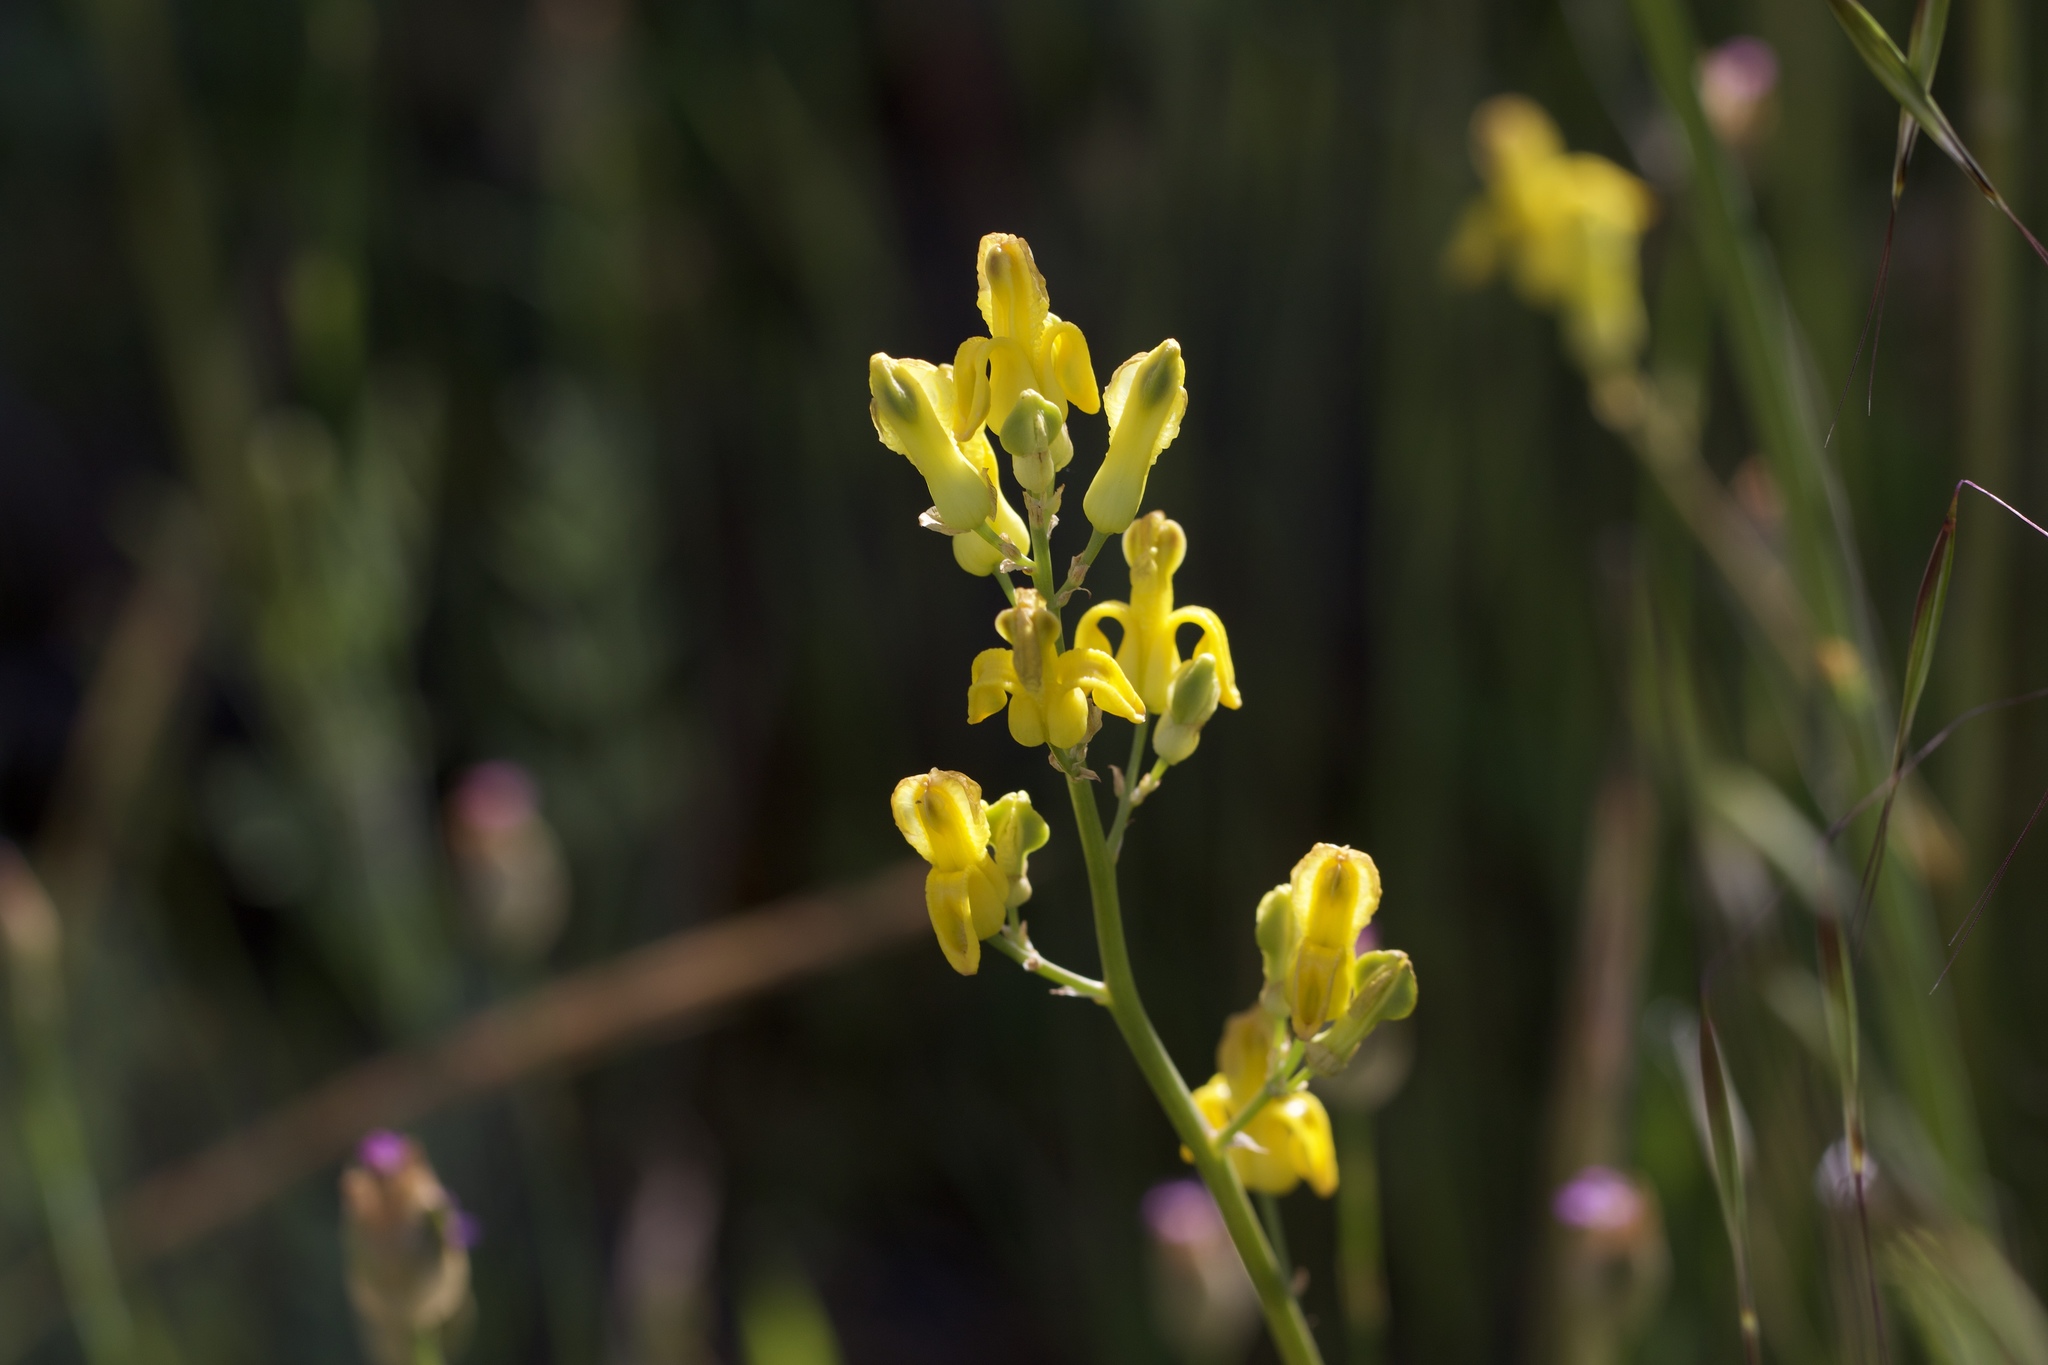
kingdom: Plantae
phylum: Tracheophyta
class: Magnoliopsida
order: Ranunculales
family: Papaveraceae
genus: Ehrendorferia
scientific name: Ehrendorferia chrysantha
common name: Golden eardrops
